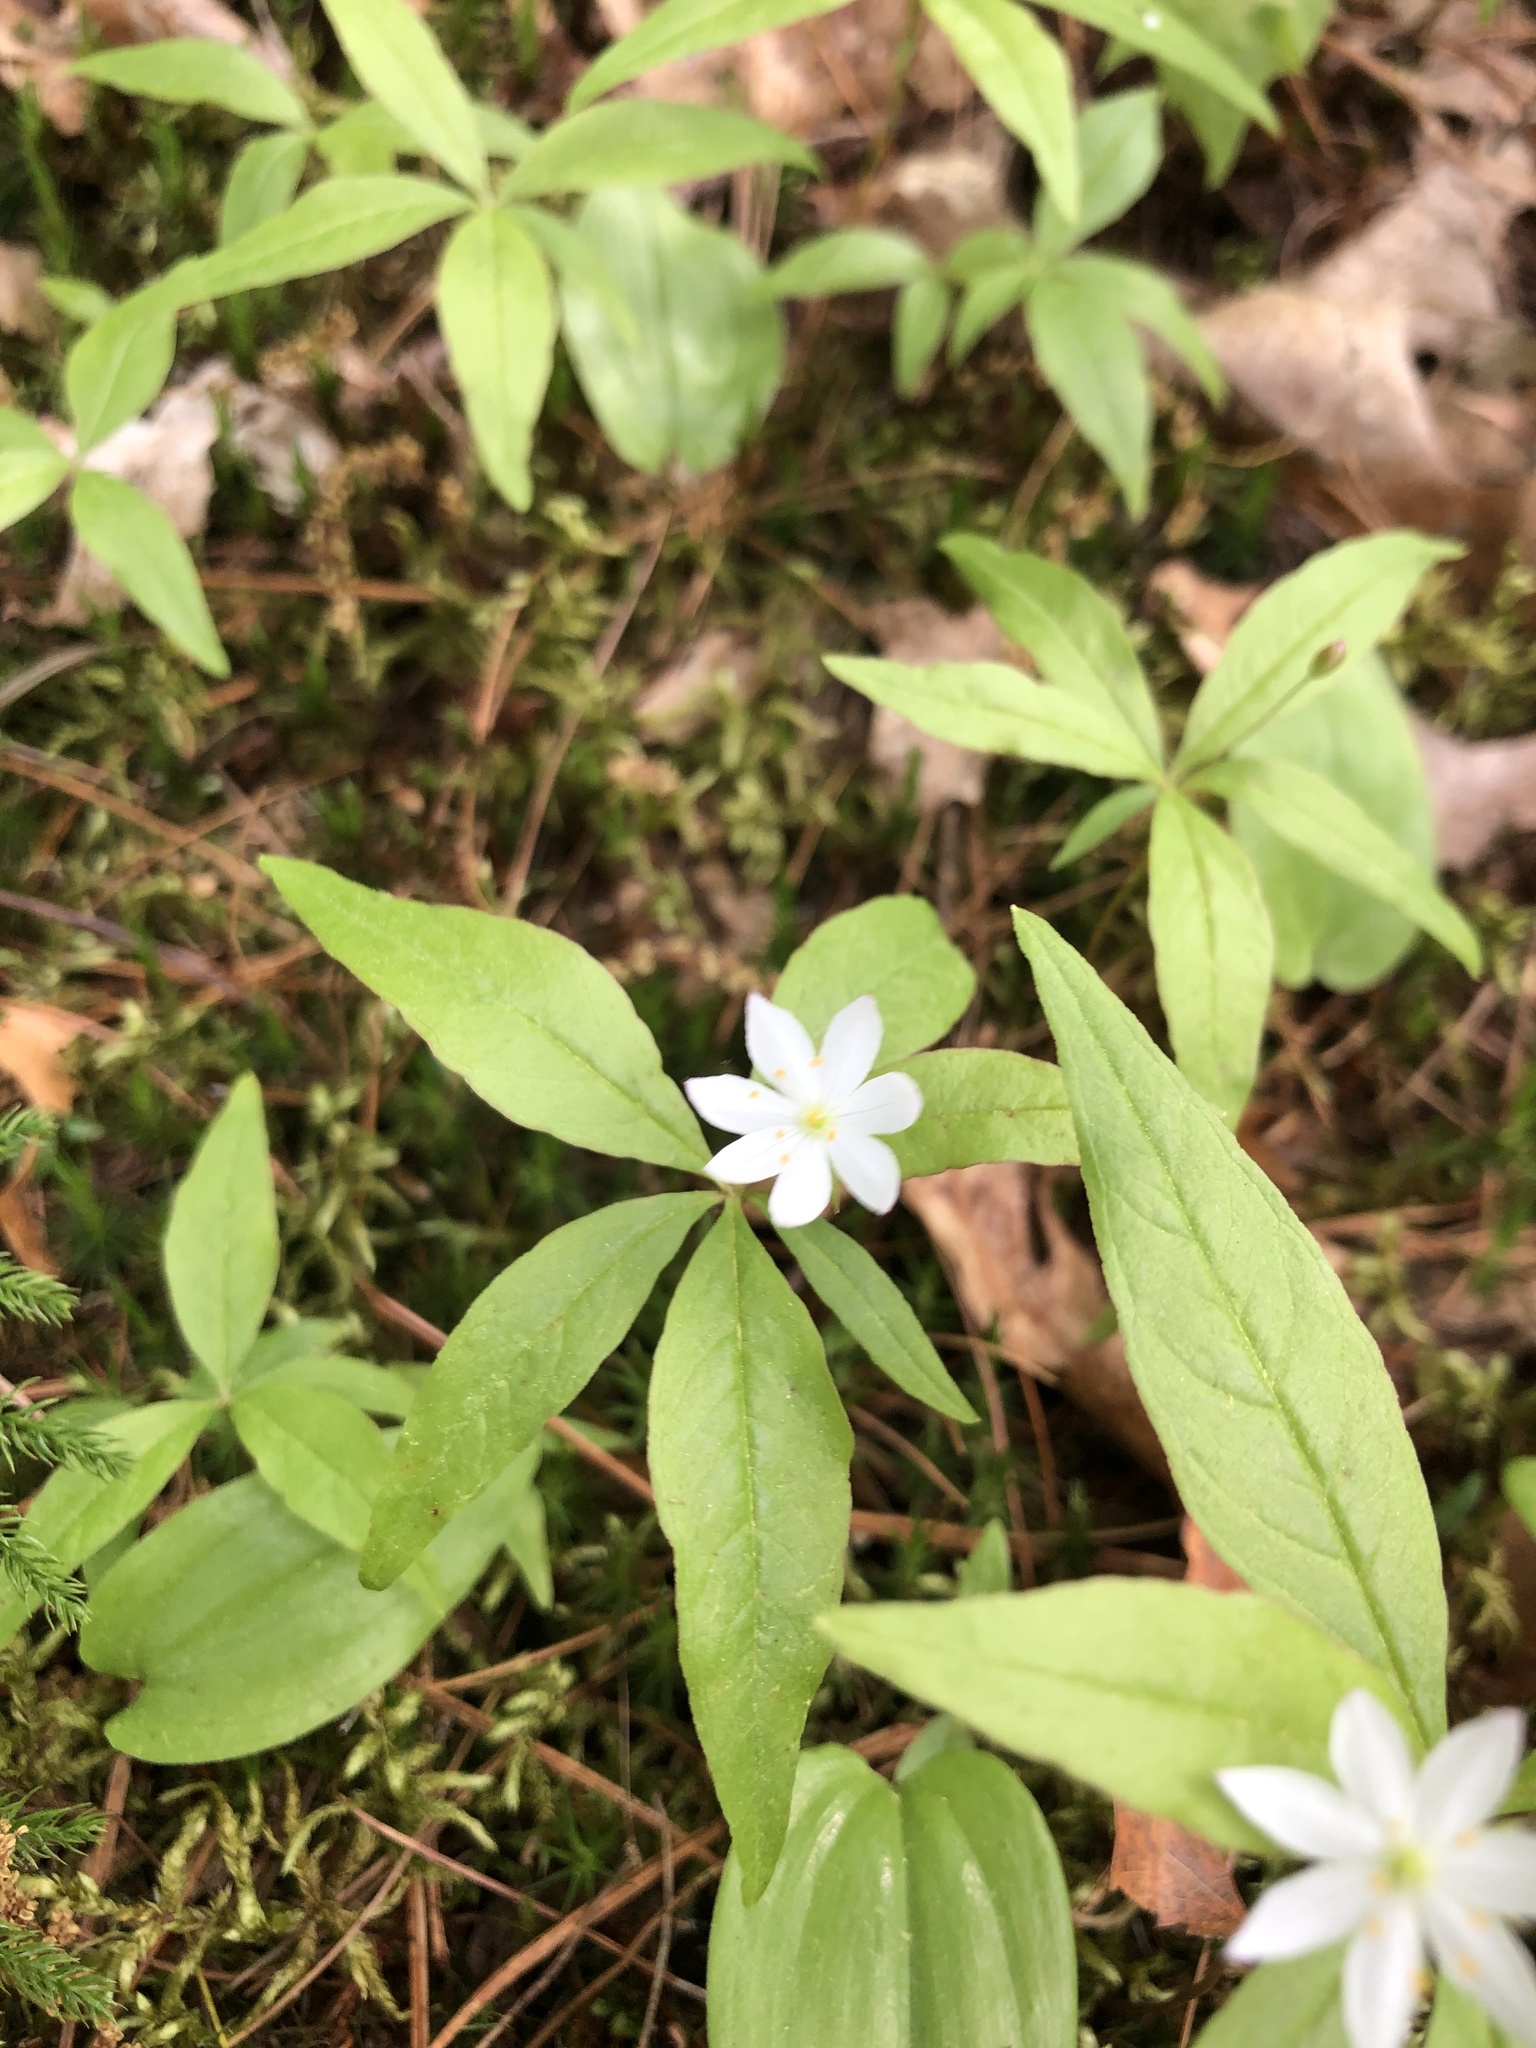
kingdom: Plantae
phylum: Tracheophyta
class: Magnoliopsida
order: Ericales
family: Primulaceae
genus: Lysimachia
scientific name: Lysimachia borealis
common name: American starflower
